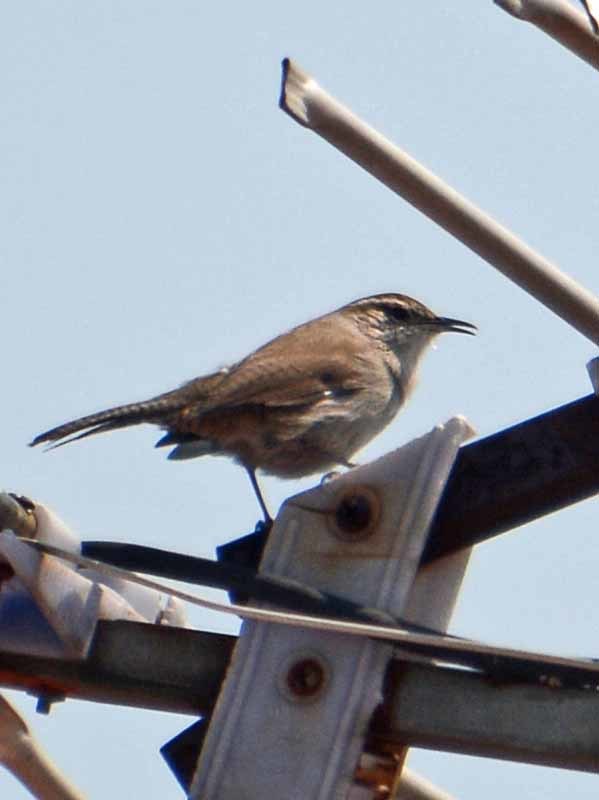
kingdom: Animalia
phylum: Chordata
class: Aves
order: Passeriformes
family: Troglodytidae
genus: Thryomanes
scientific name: Thryomanes bewickii
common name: Bewick's wren
